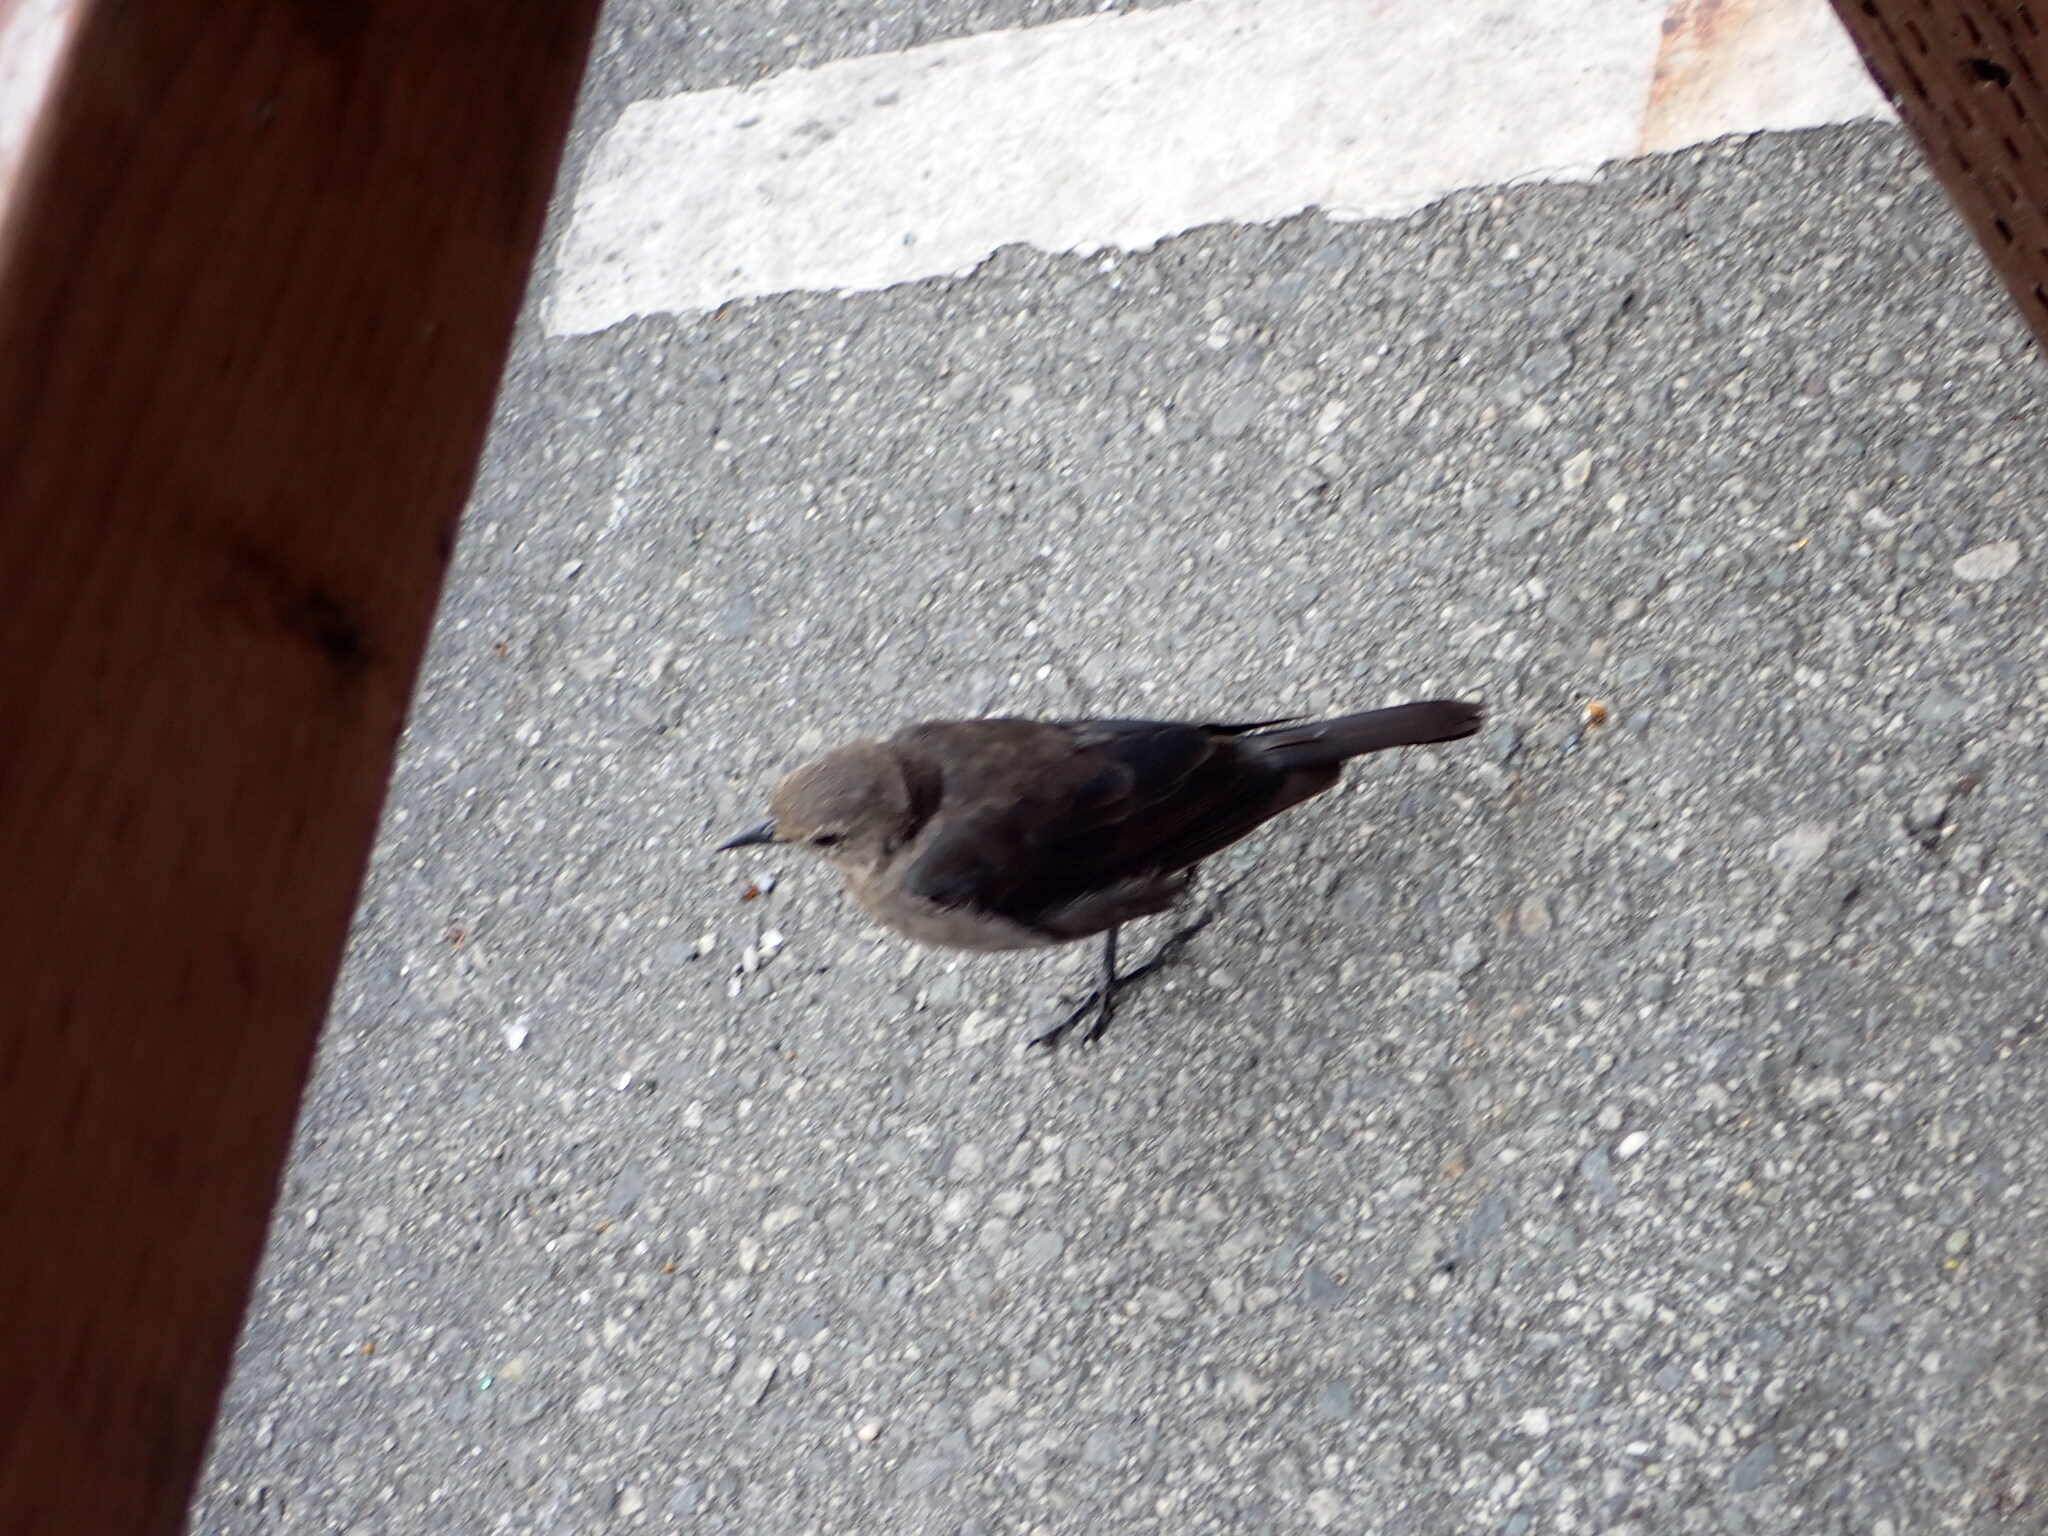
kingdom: Animalia
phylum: Chordata
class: Aves
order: Passeriformes
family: Icteridae
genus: Euphagus
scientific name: Euphagus cyanocephalus
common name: Brewer's blackbird
